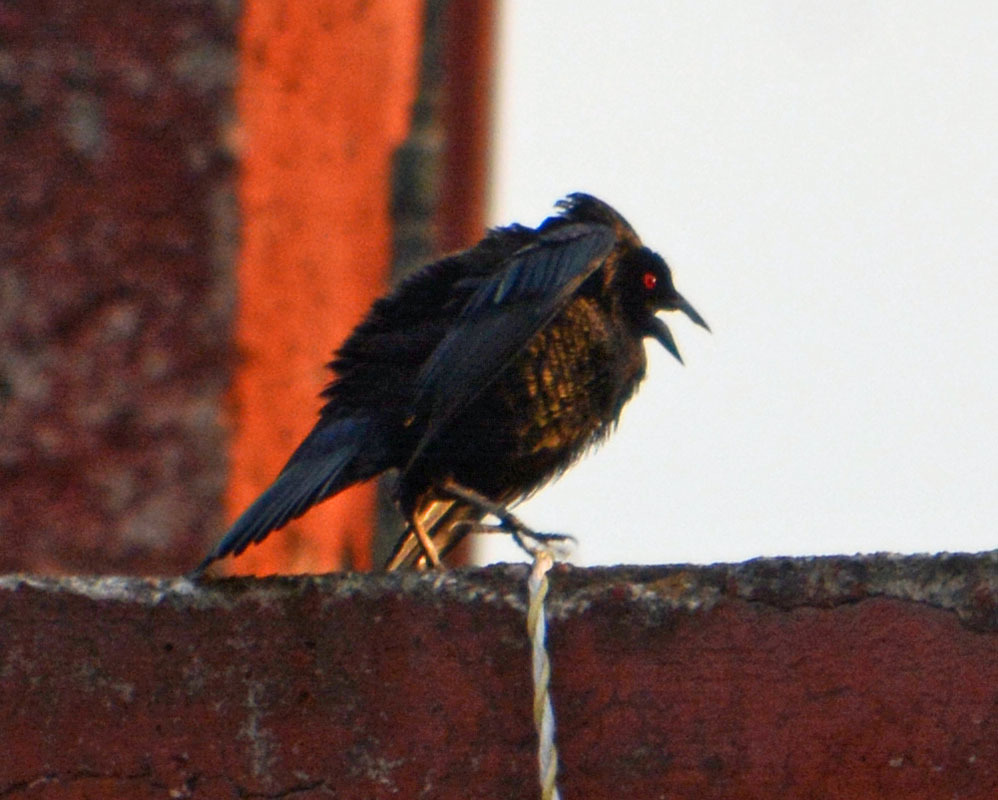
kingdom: Animalia
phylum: Chordata
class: Aves
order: Passeriformes
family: Icteridae
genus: Molothrus
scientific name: Molothrus aeneus
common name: Bronzed cowbird
